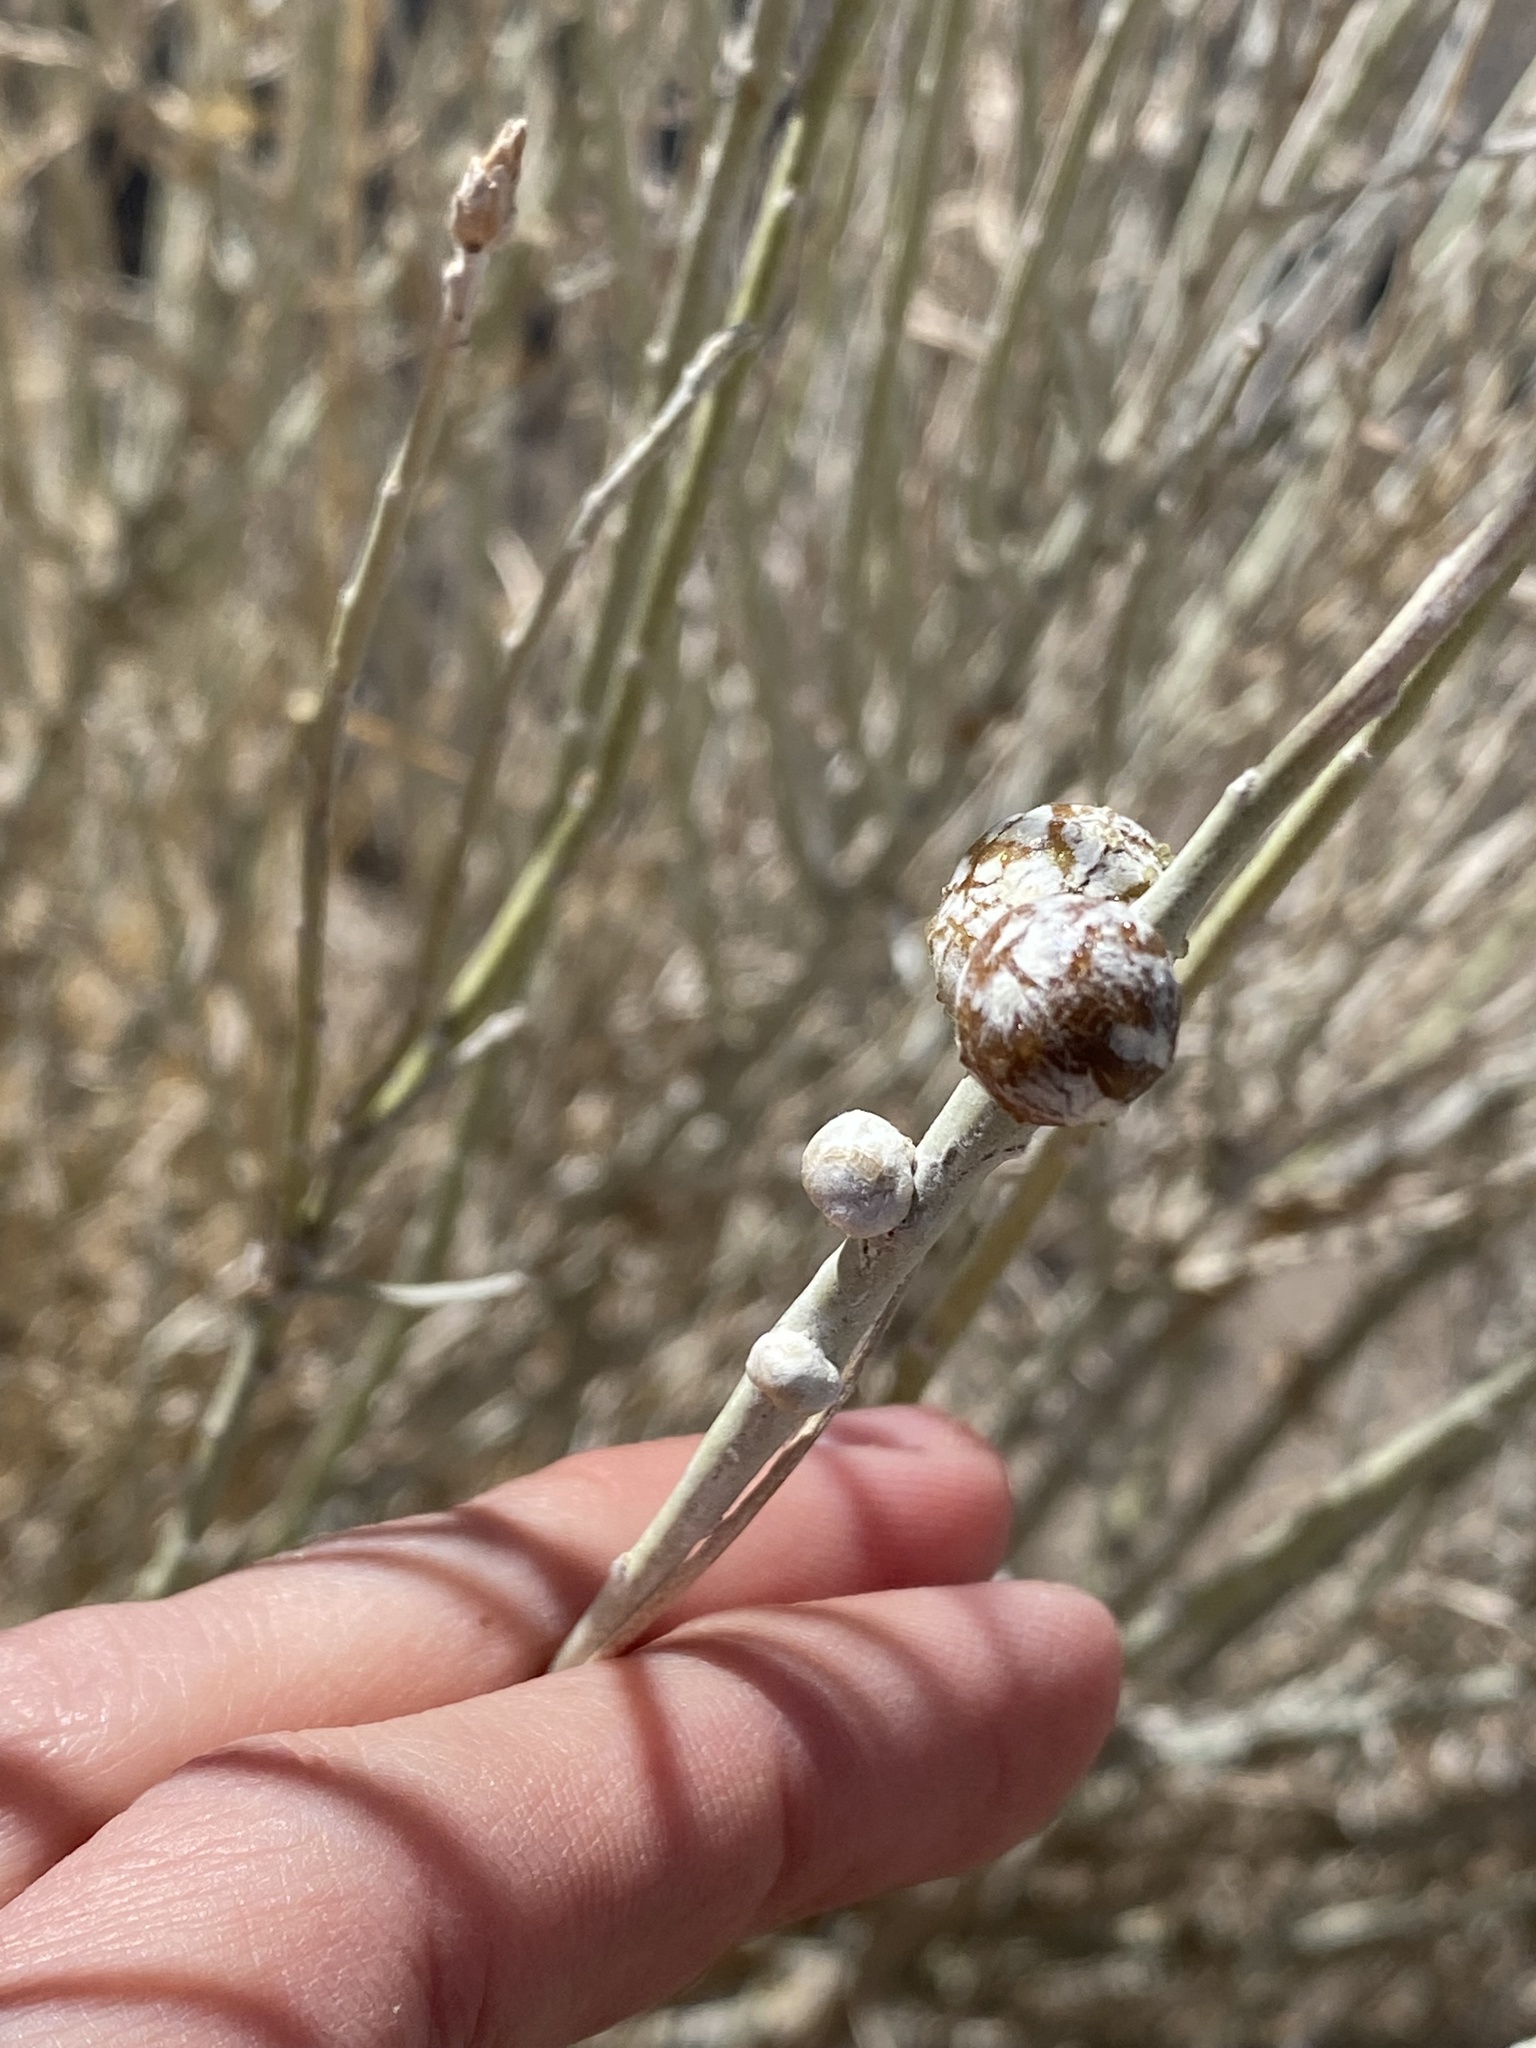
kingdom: Animalia
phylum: Arthropoda
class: Insecta
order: Diptera
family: Tephritidae
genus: Aciurina
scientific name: Aciurina trixa
